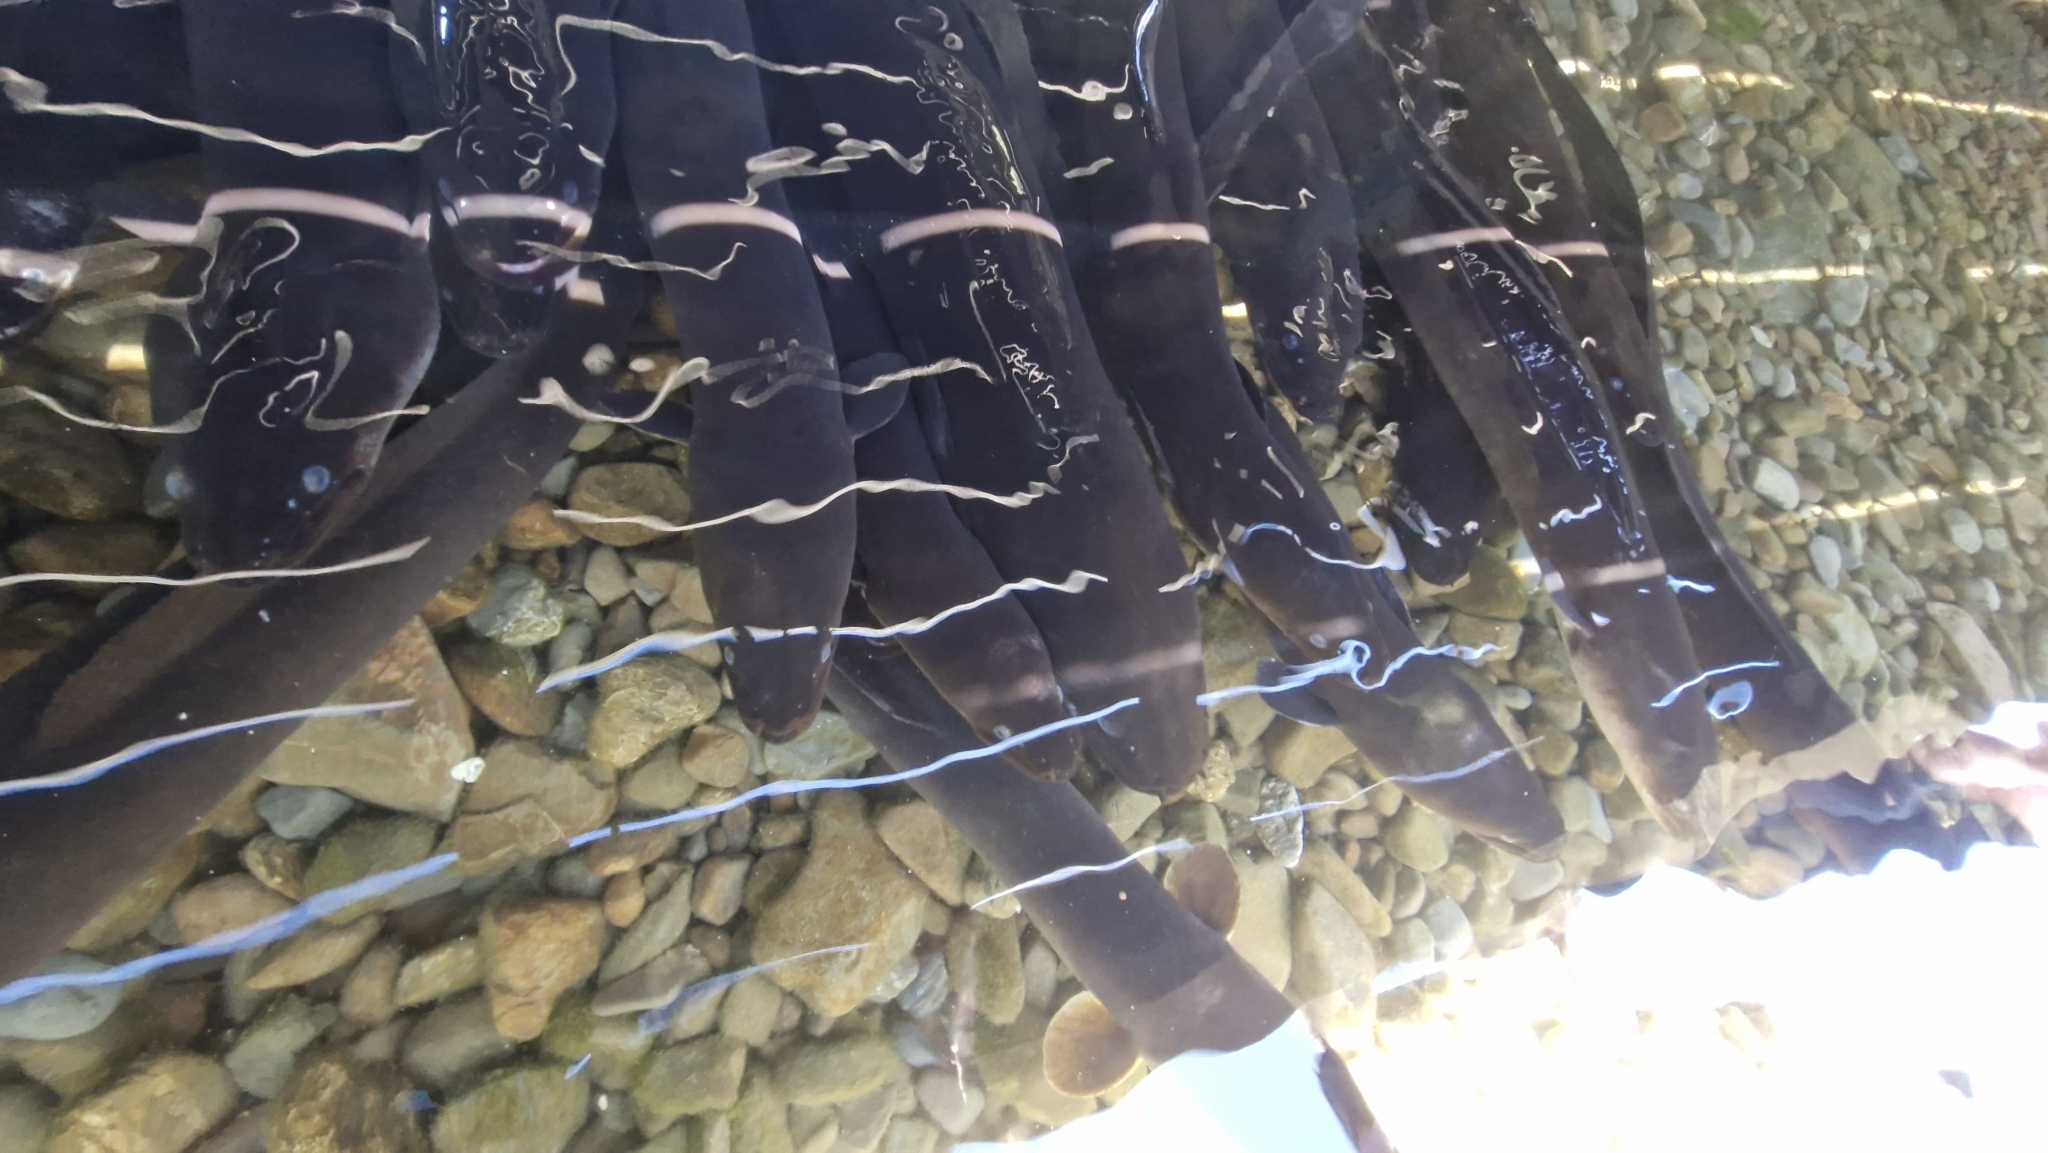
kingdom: Animalia
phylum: Chordata
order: Anguilliformes
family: Anguillidae
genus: Anguilla
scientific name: Anguilla dieffenbachii
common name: New zealand longfin eel
